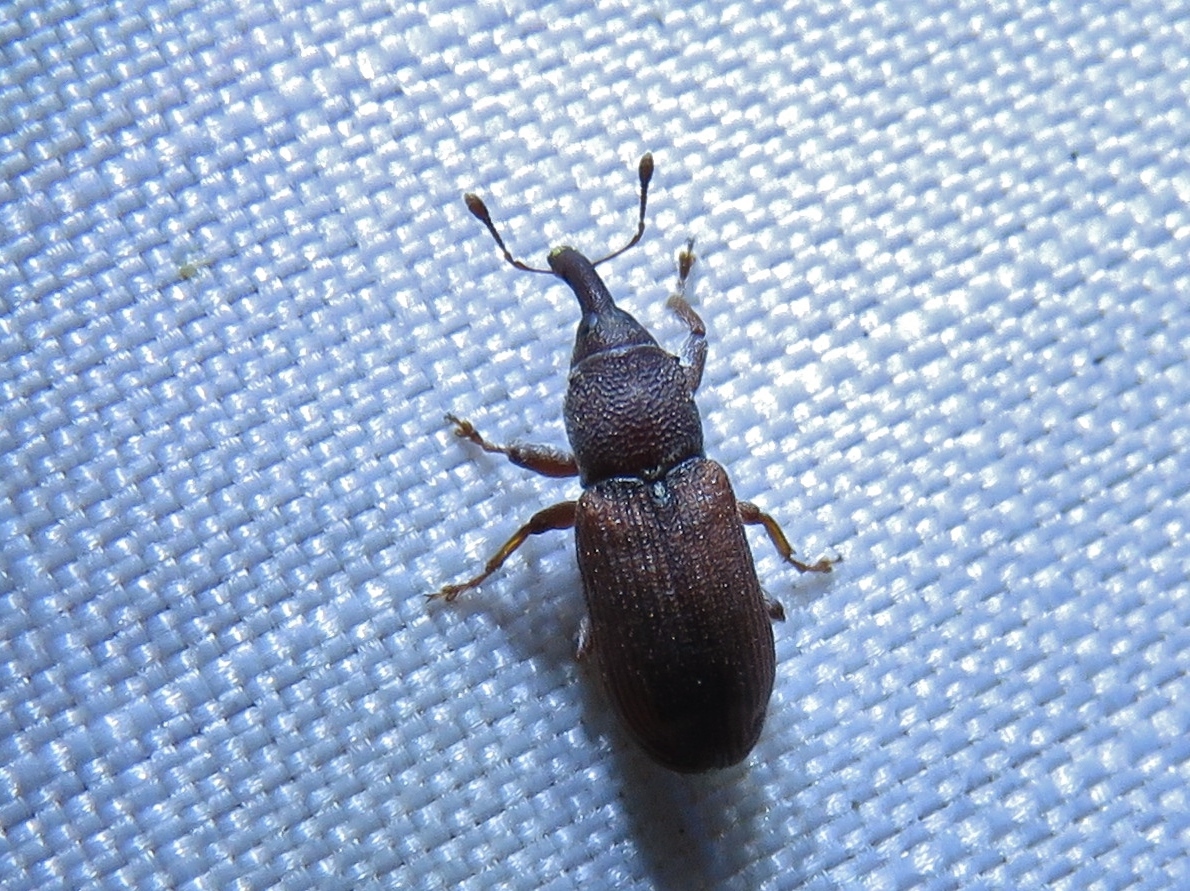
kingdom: Animalia
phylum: Arthropoda
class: Insecta
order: Coleoptera
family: Curculionidae
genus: Magdalis
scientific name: Magdalis armicollis
